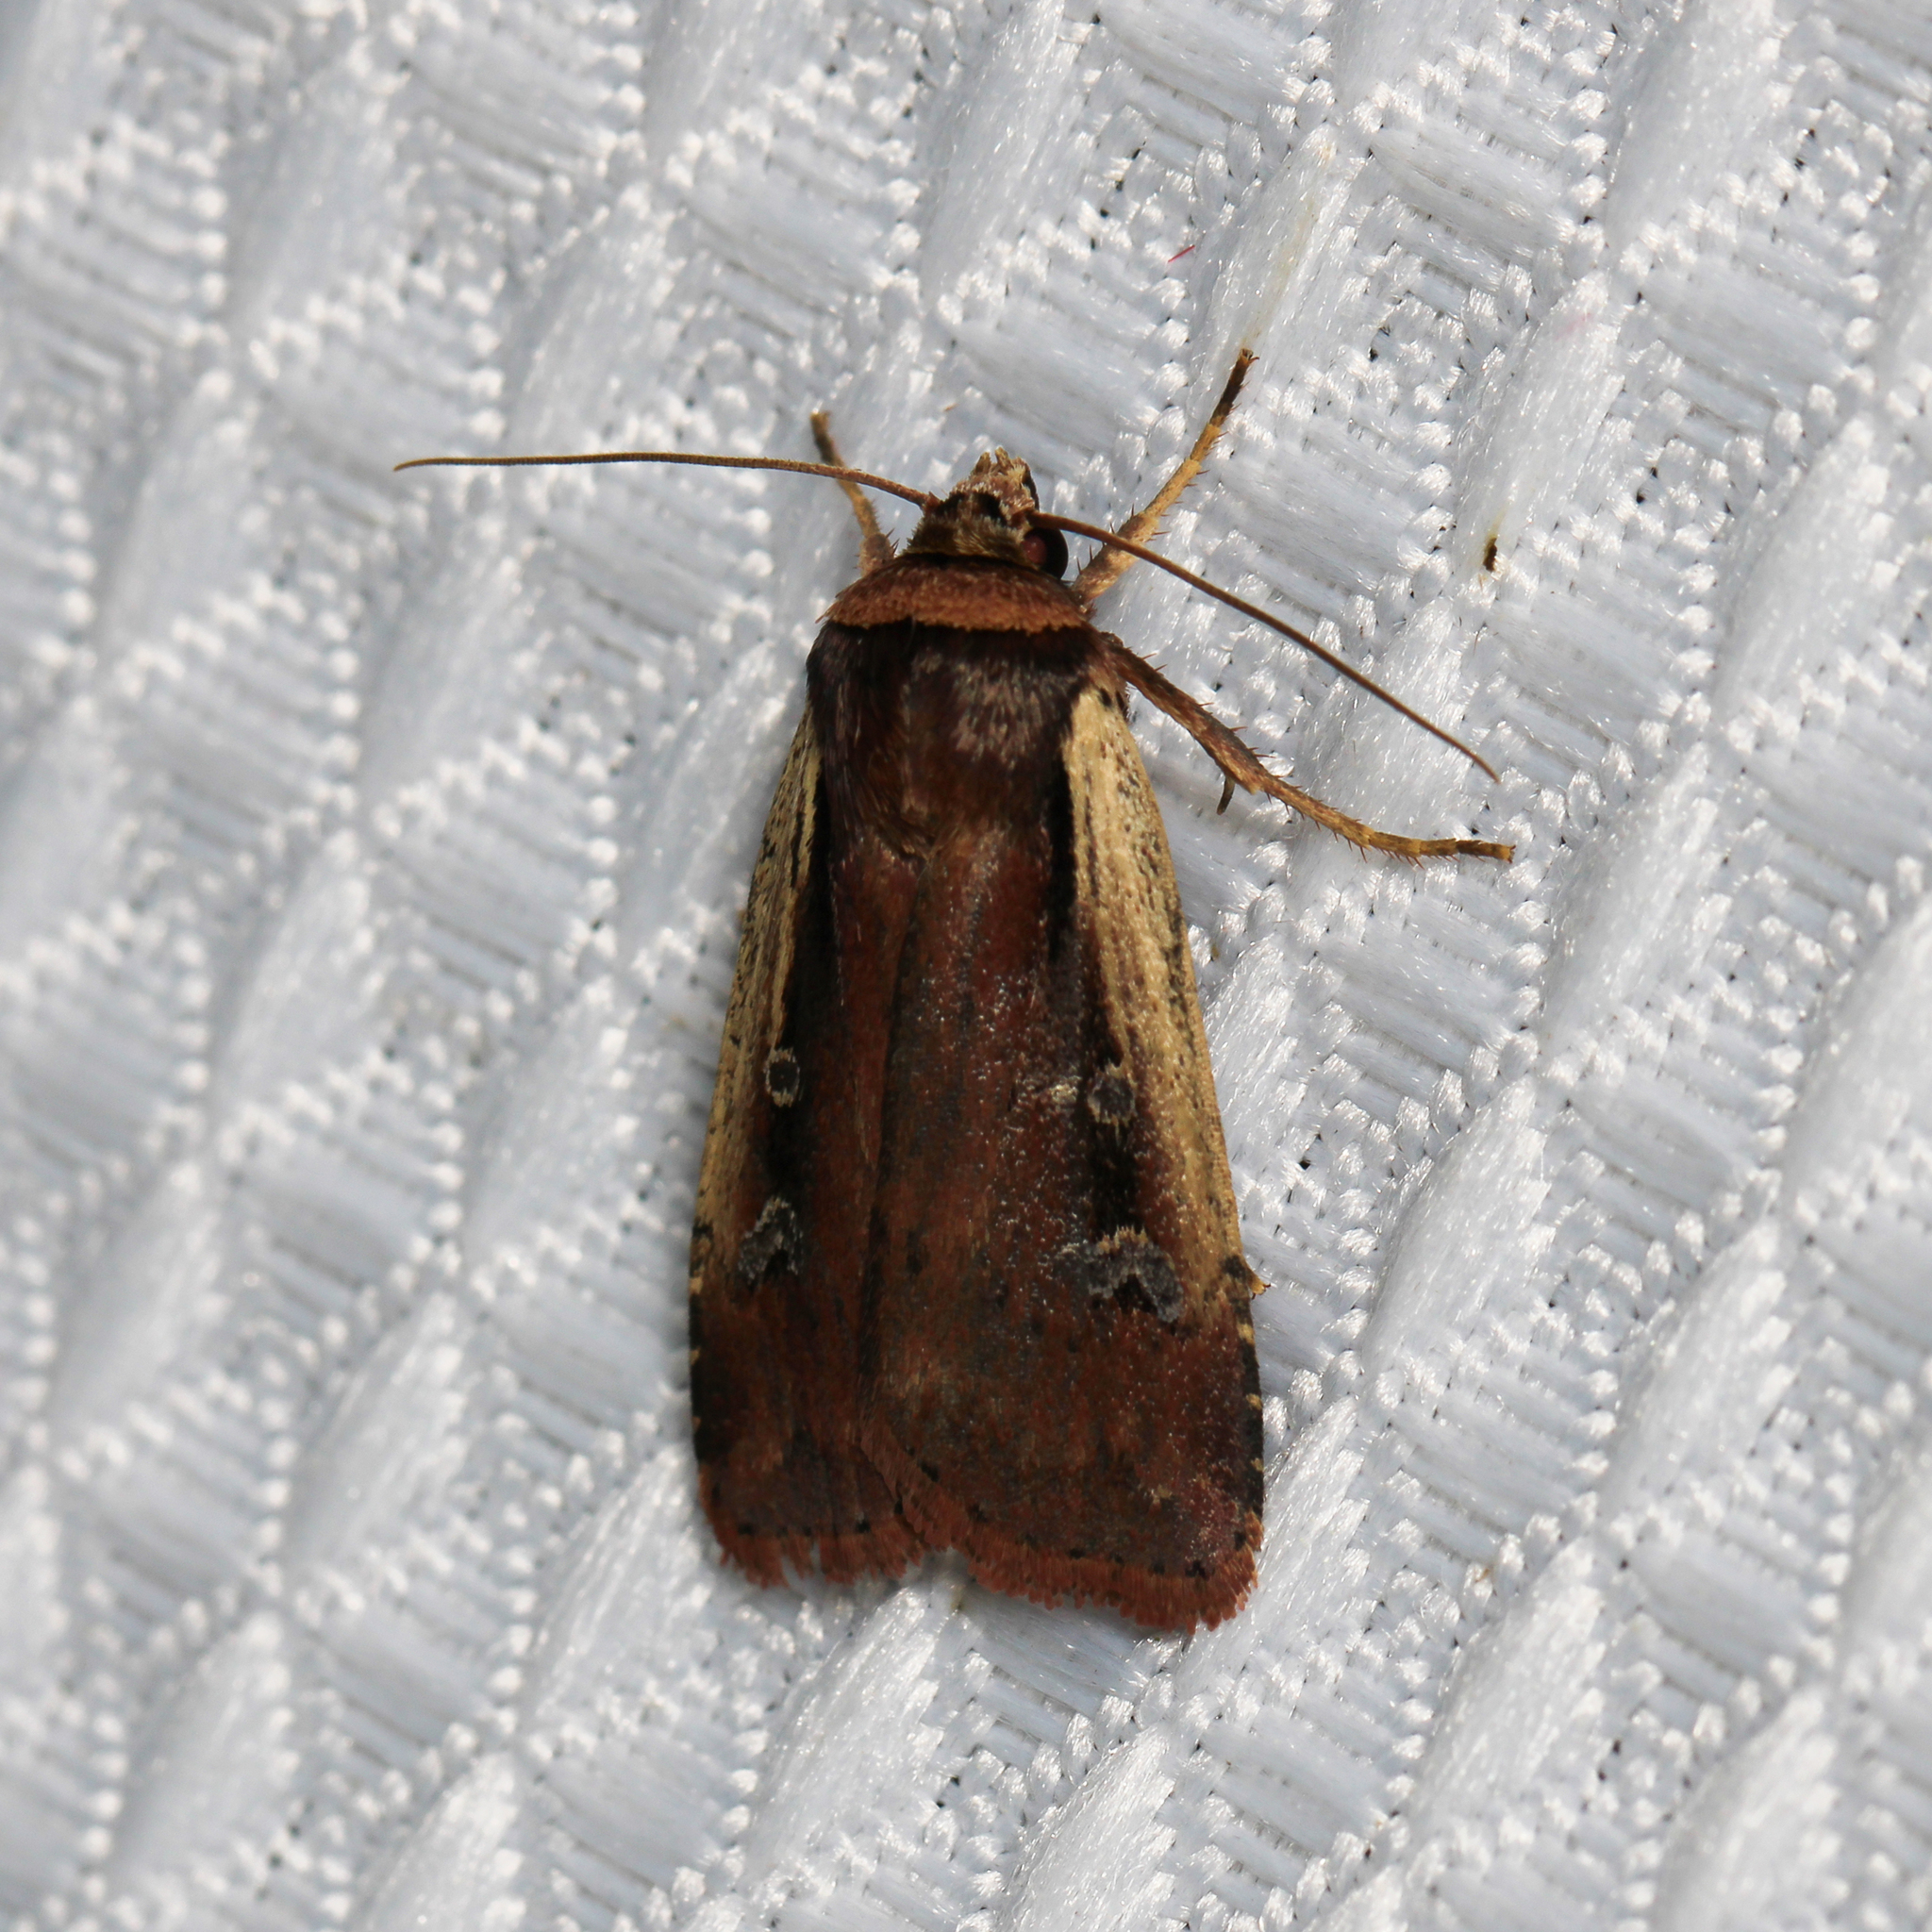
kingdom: Animalia
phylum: Arthropoda
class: Insecta
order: Lepidoptera
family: Noctuidae
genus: Ochropleura
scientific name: Ochropleura implecta
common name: Flame-shouldered dart
